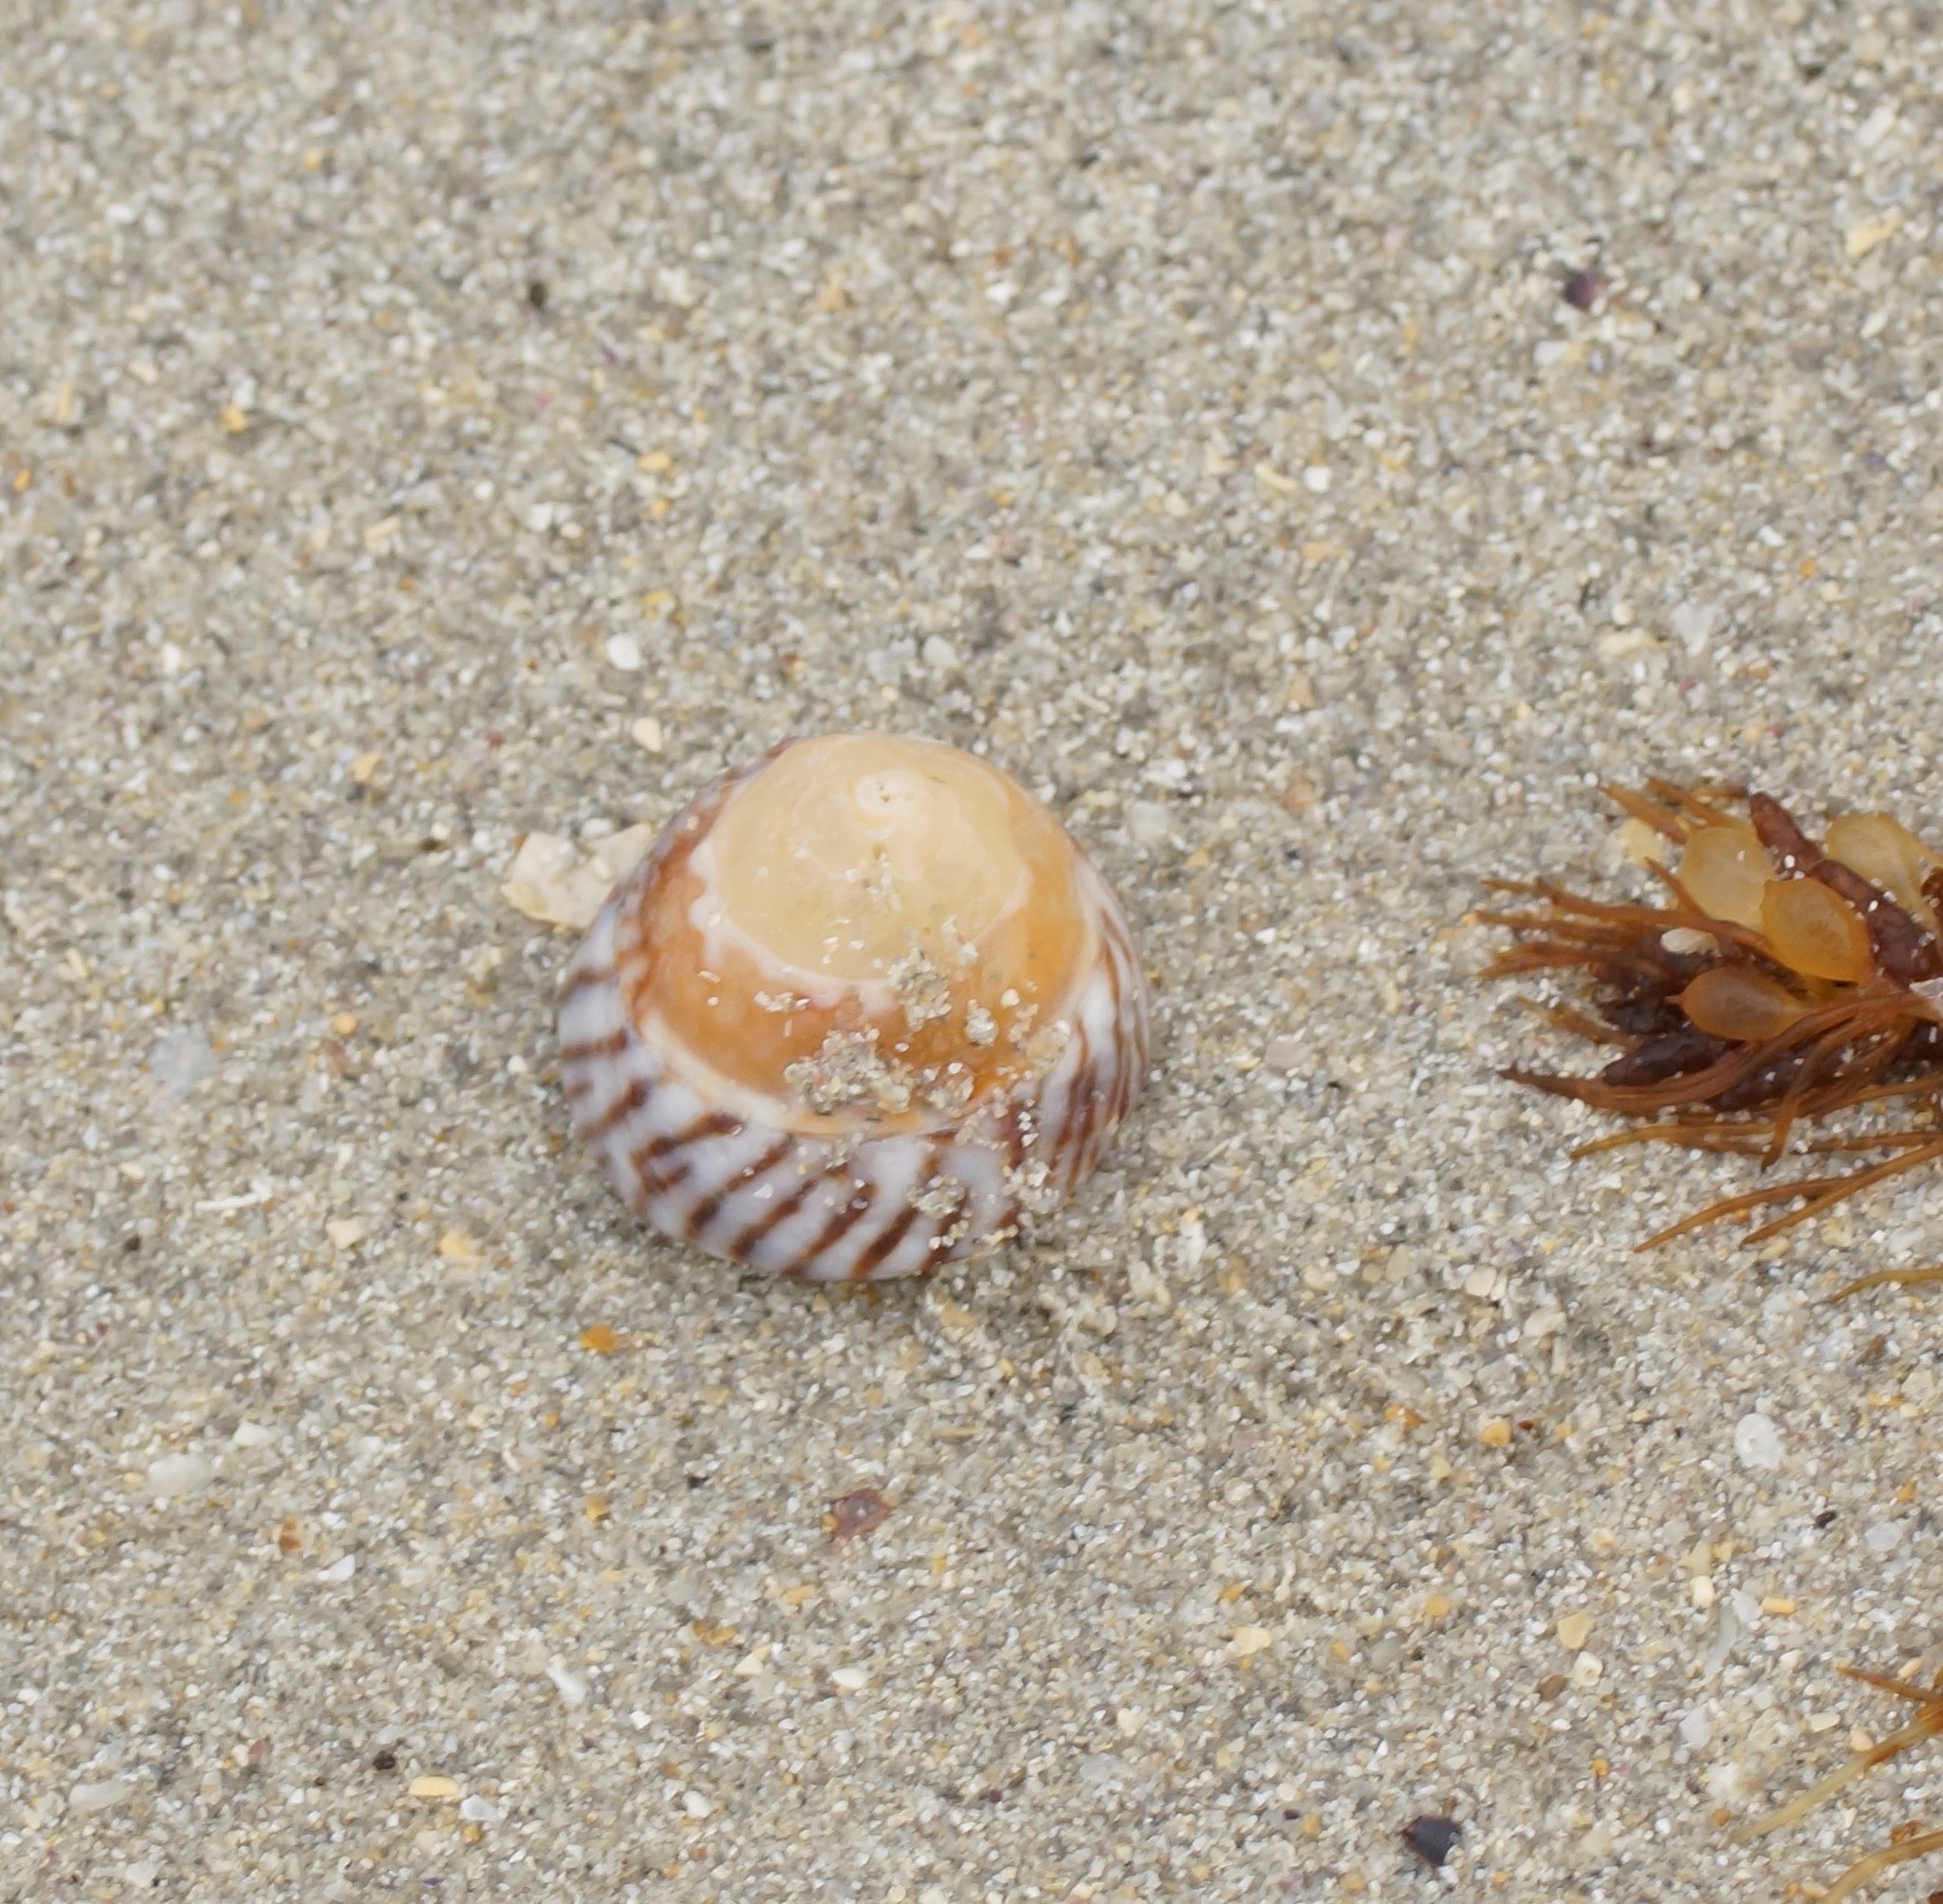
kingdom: Animalia
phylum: Mollusca
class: Gastropoda
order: Littorinimorpha
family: Littorinidae
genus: Bembicium
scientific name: Bembicium nanum
